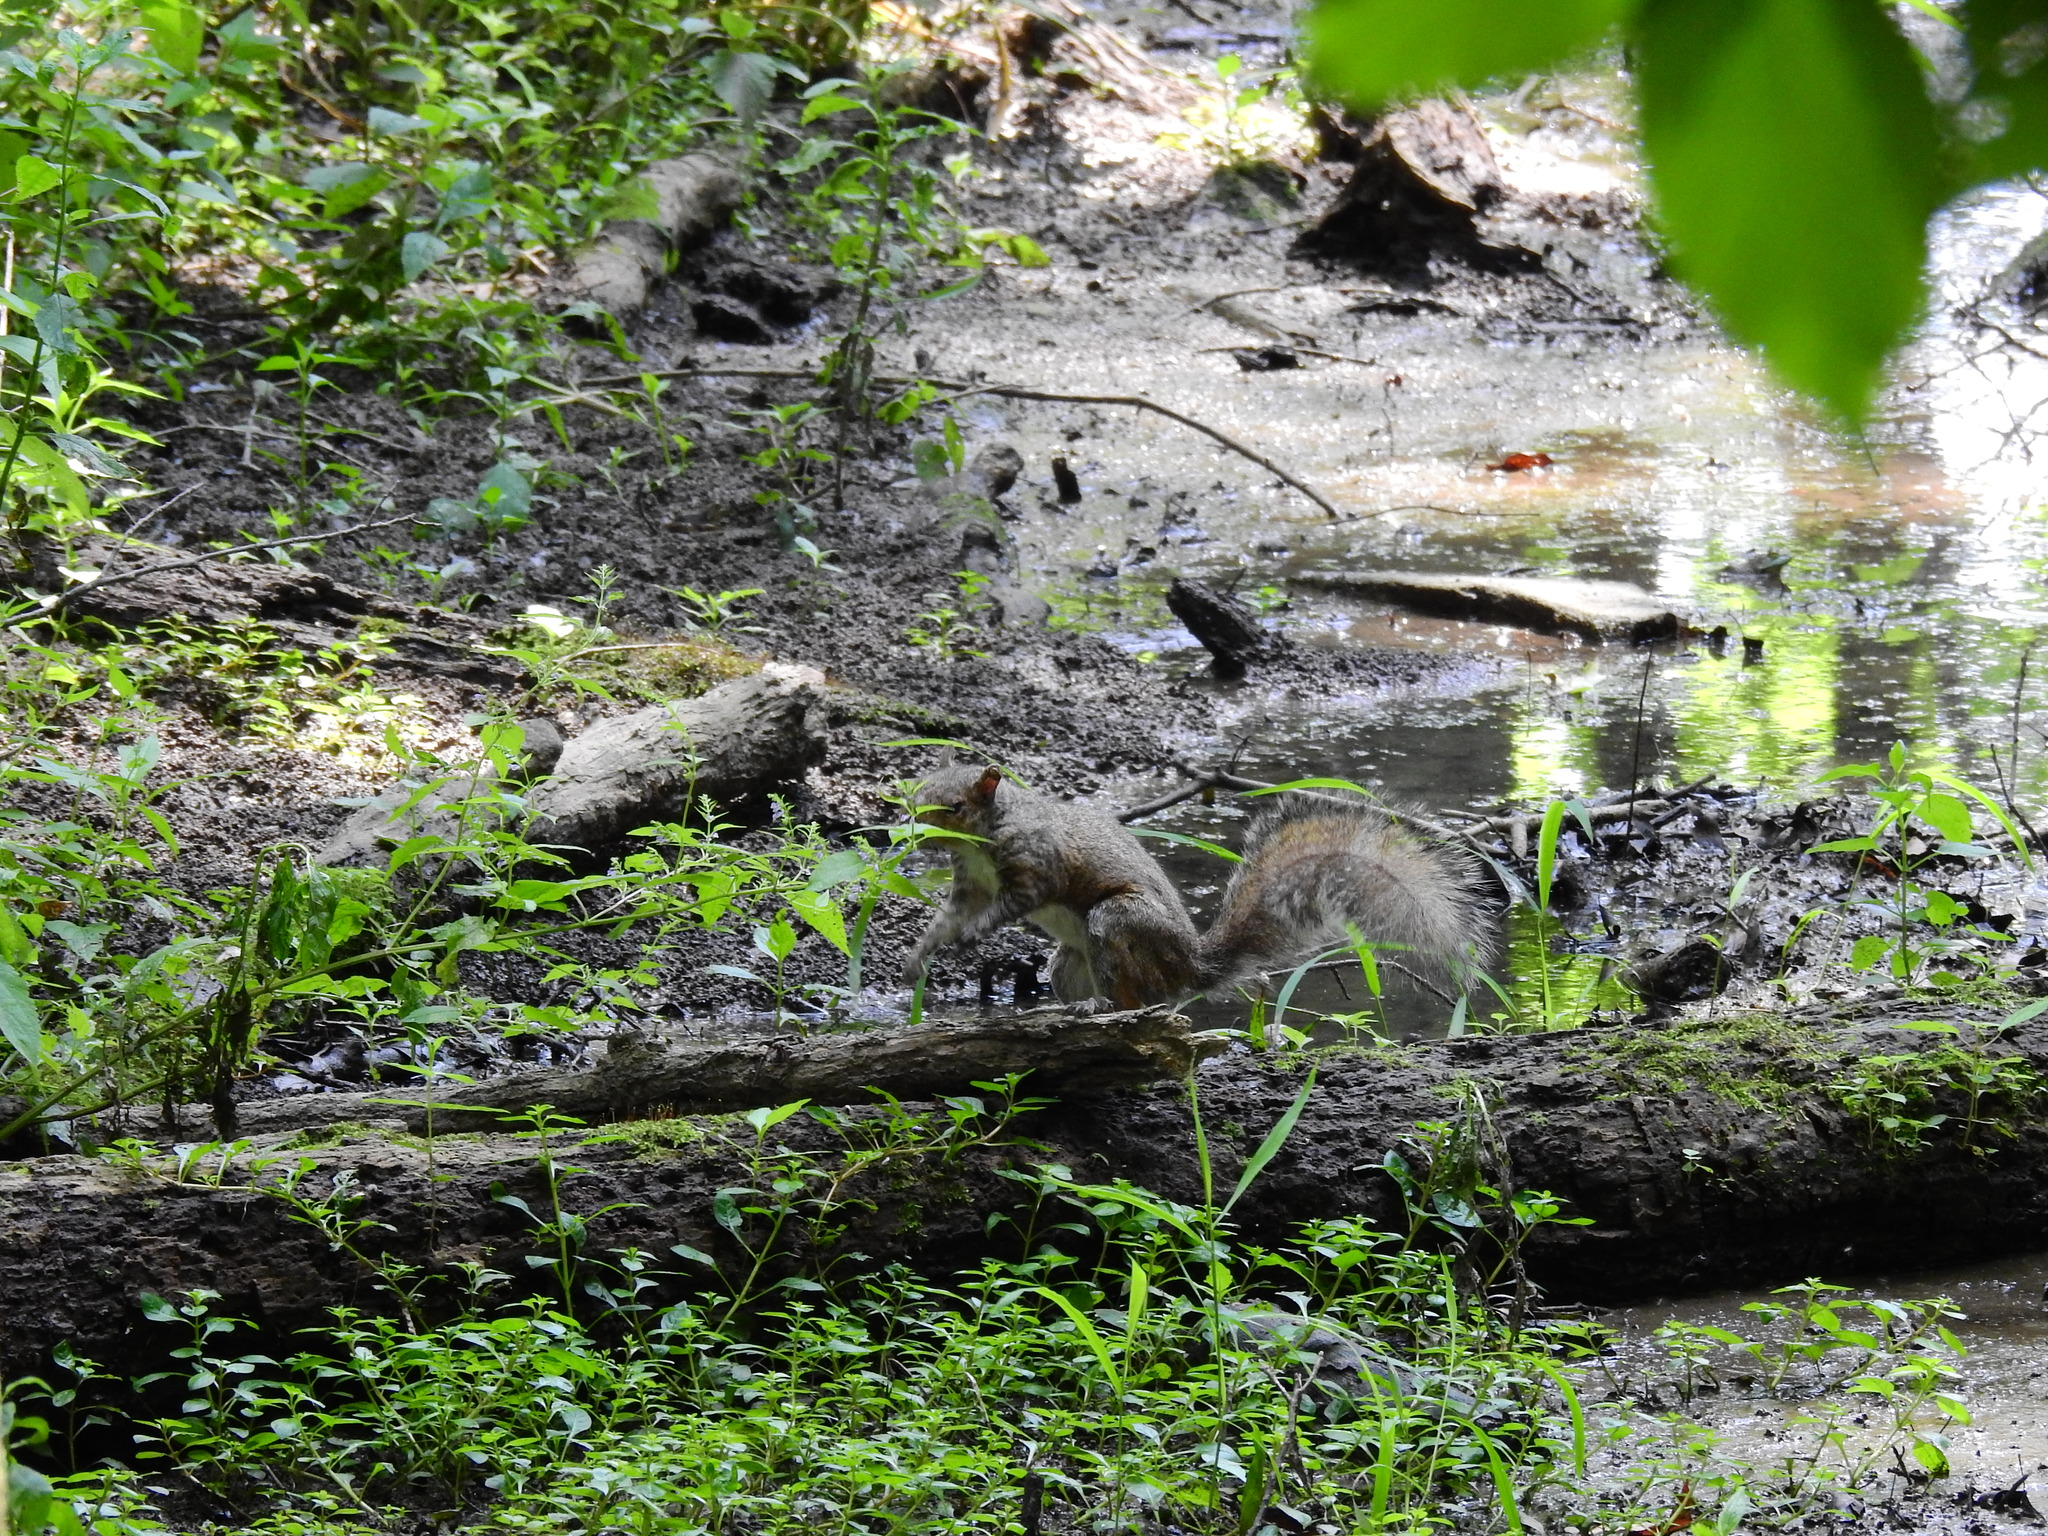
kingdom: Animalia
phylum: Chordata
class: Mammalia
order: Rodentia
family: Sciuridae
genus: Sciurus
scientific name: Sciurus carolinensis
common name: Eastern gray squirrel
